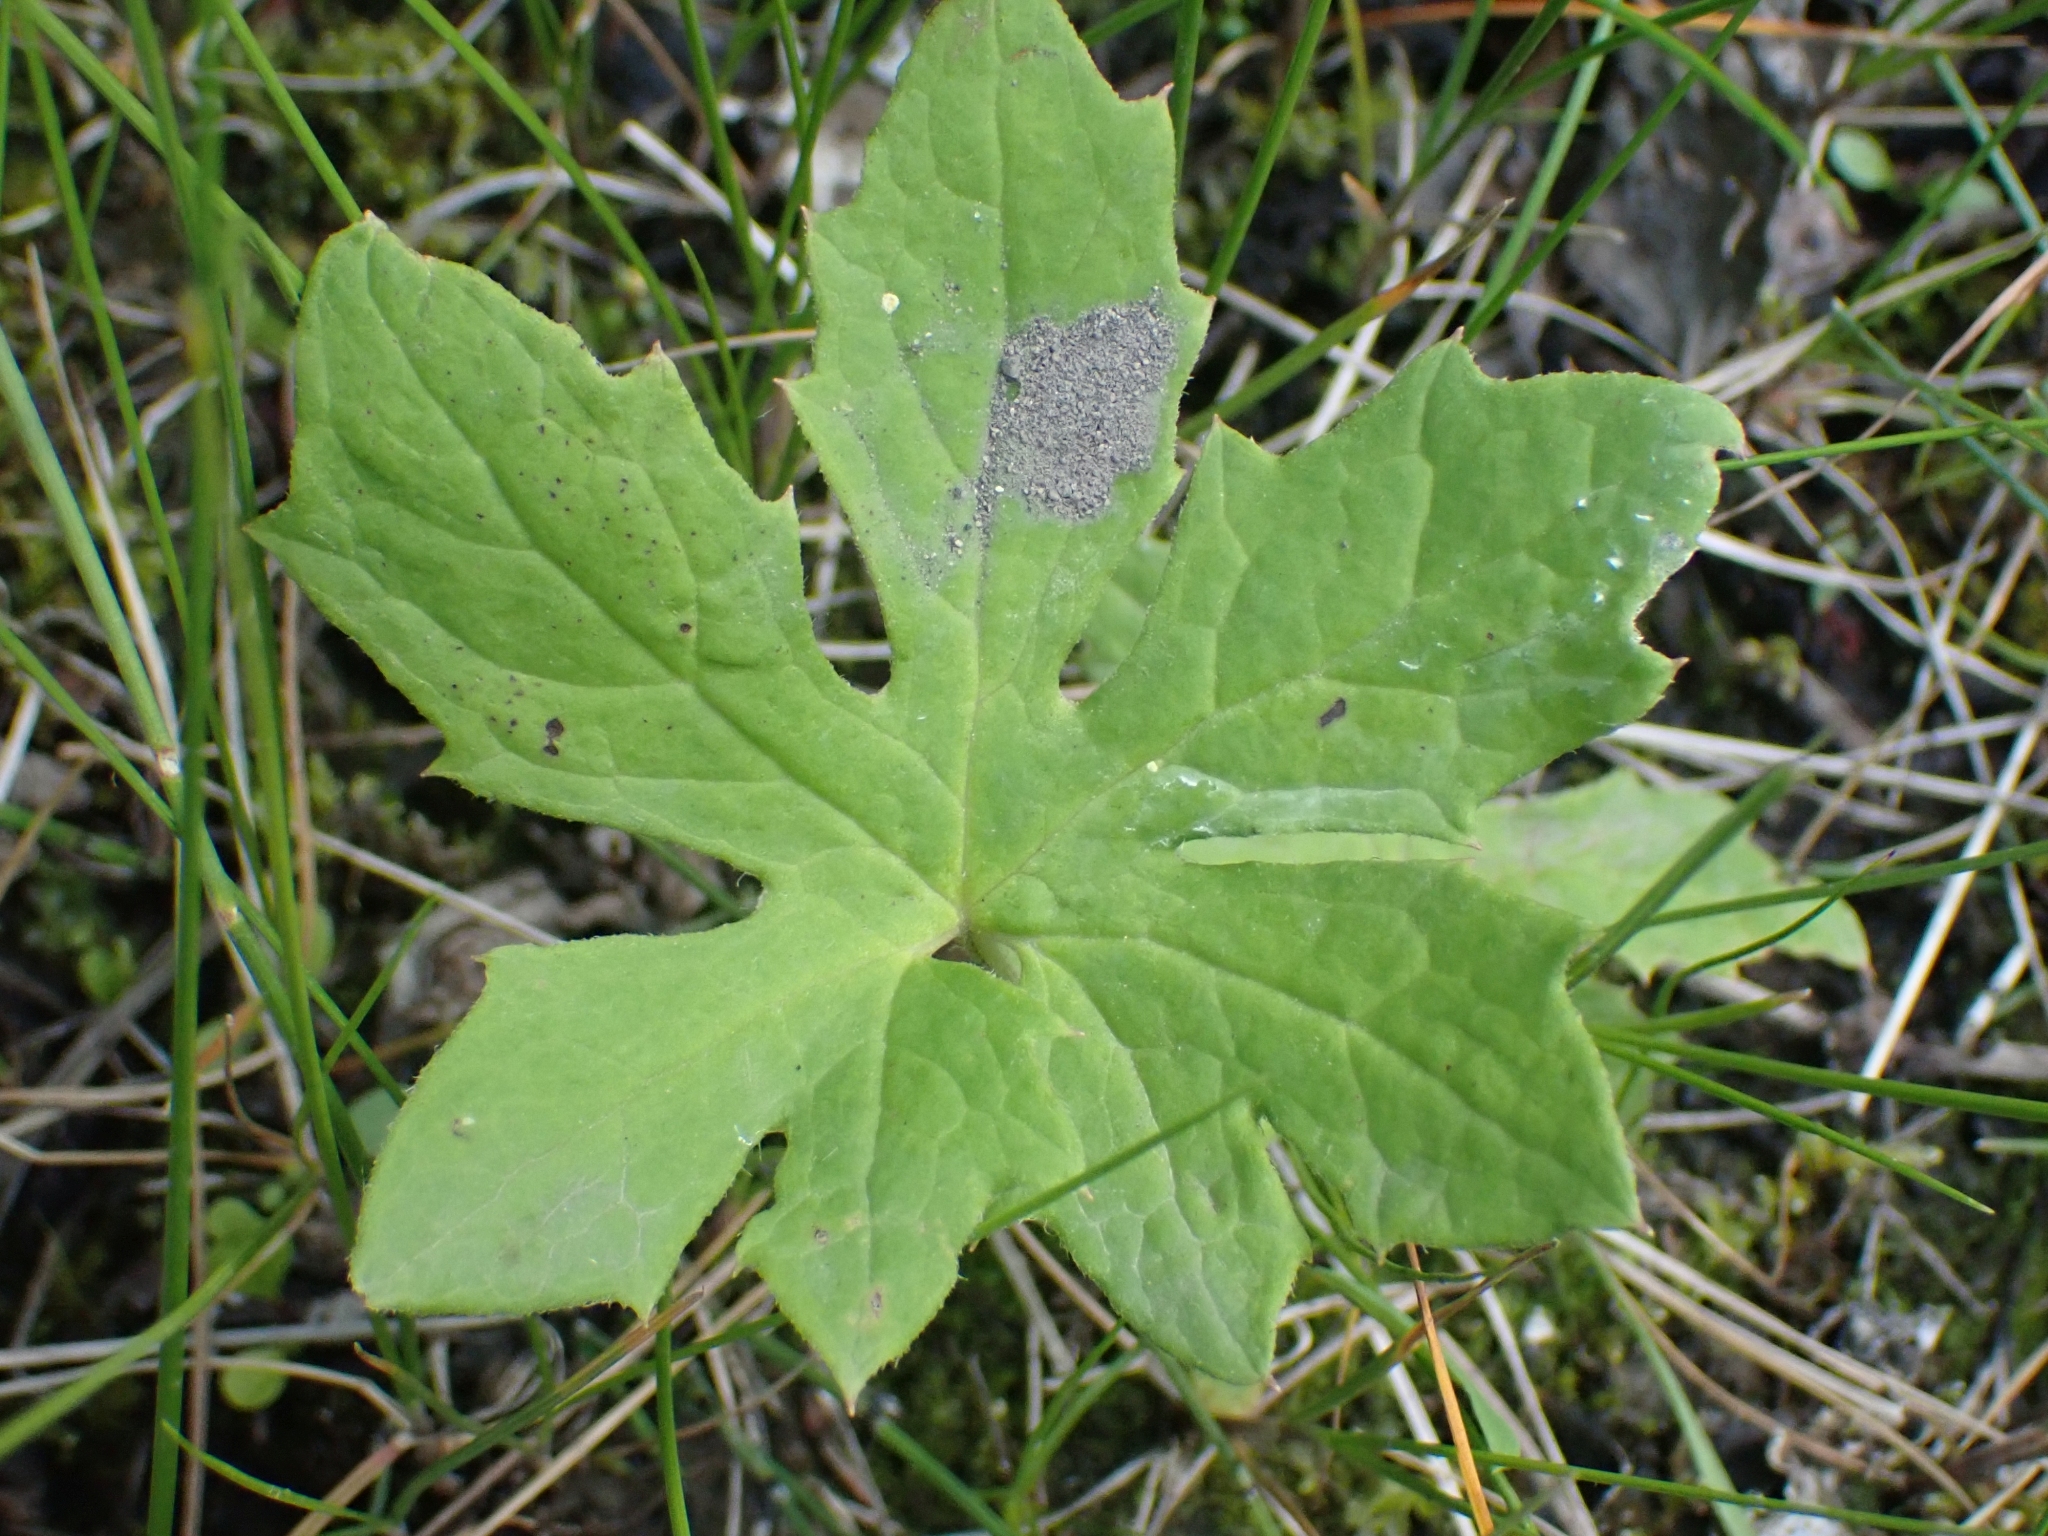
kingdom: Plantae
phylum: Tracheophyta
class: Magnoliopsida
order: Asterales
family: Asteraceae
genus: Petasites
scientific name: Petasites frigidus
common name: Arctic butterbur
